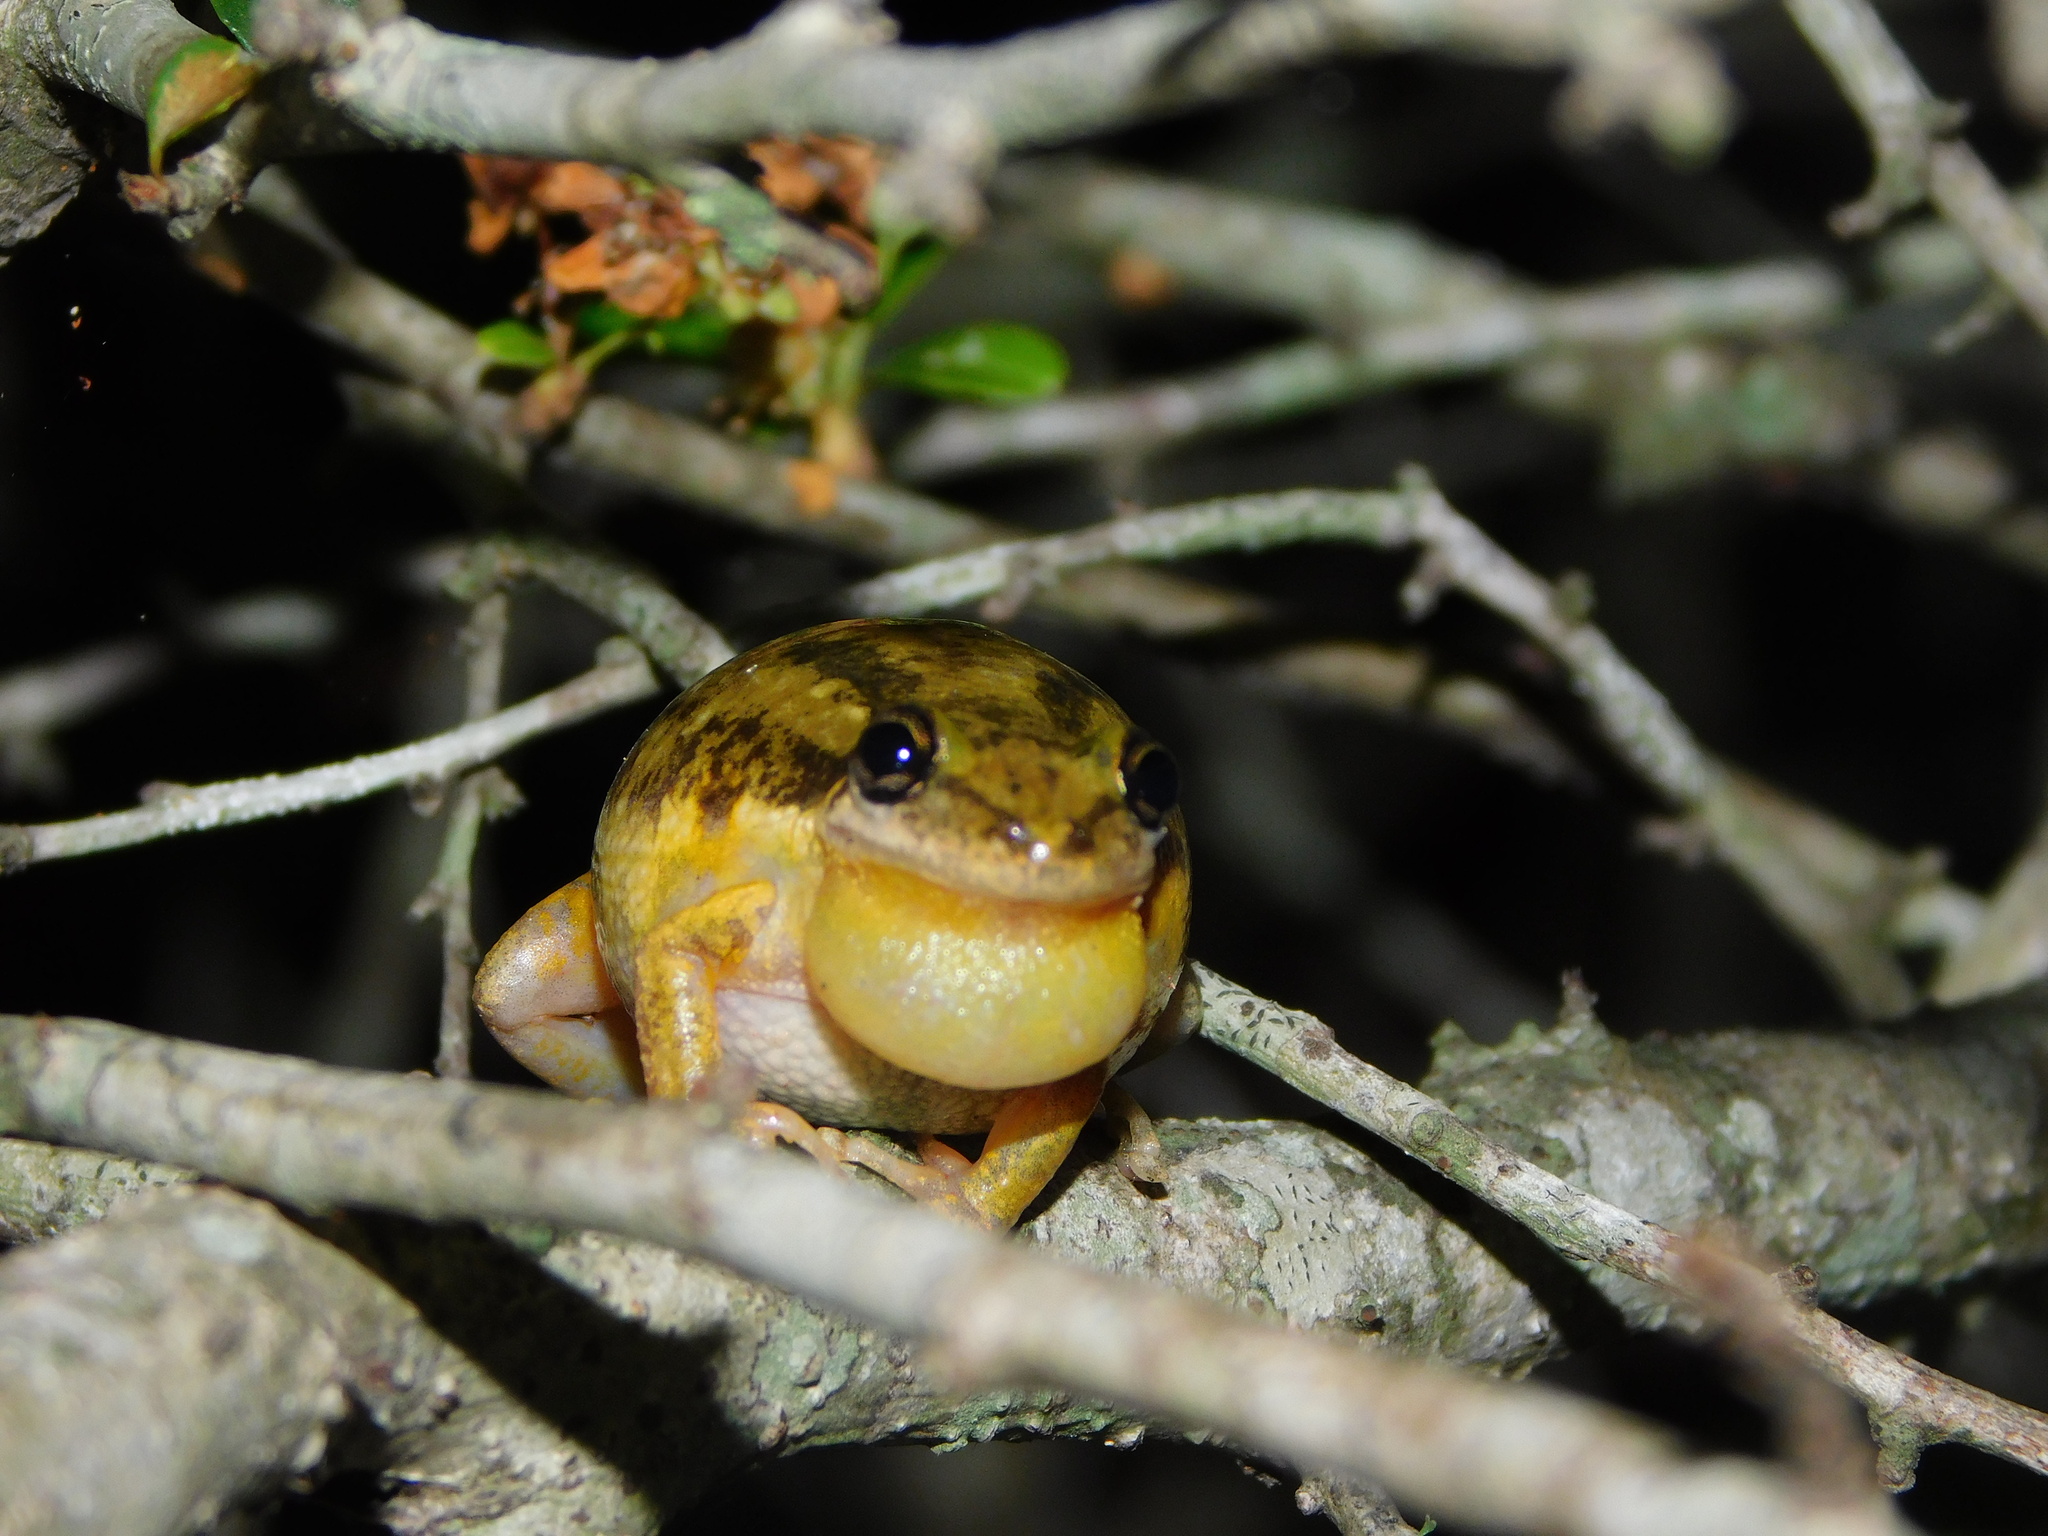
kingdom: Animalia
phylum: Chordata
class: Amphibia
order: Anura
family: Hylidae
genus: Scinax
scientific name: Scinax nasicus
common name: Lesser snouted treefrog
